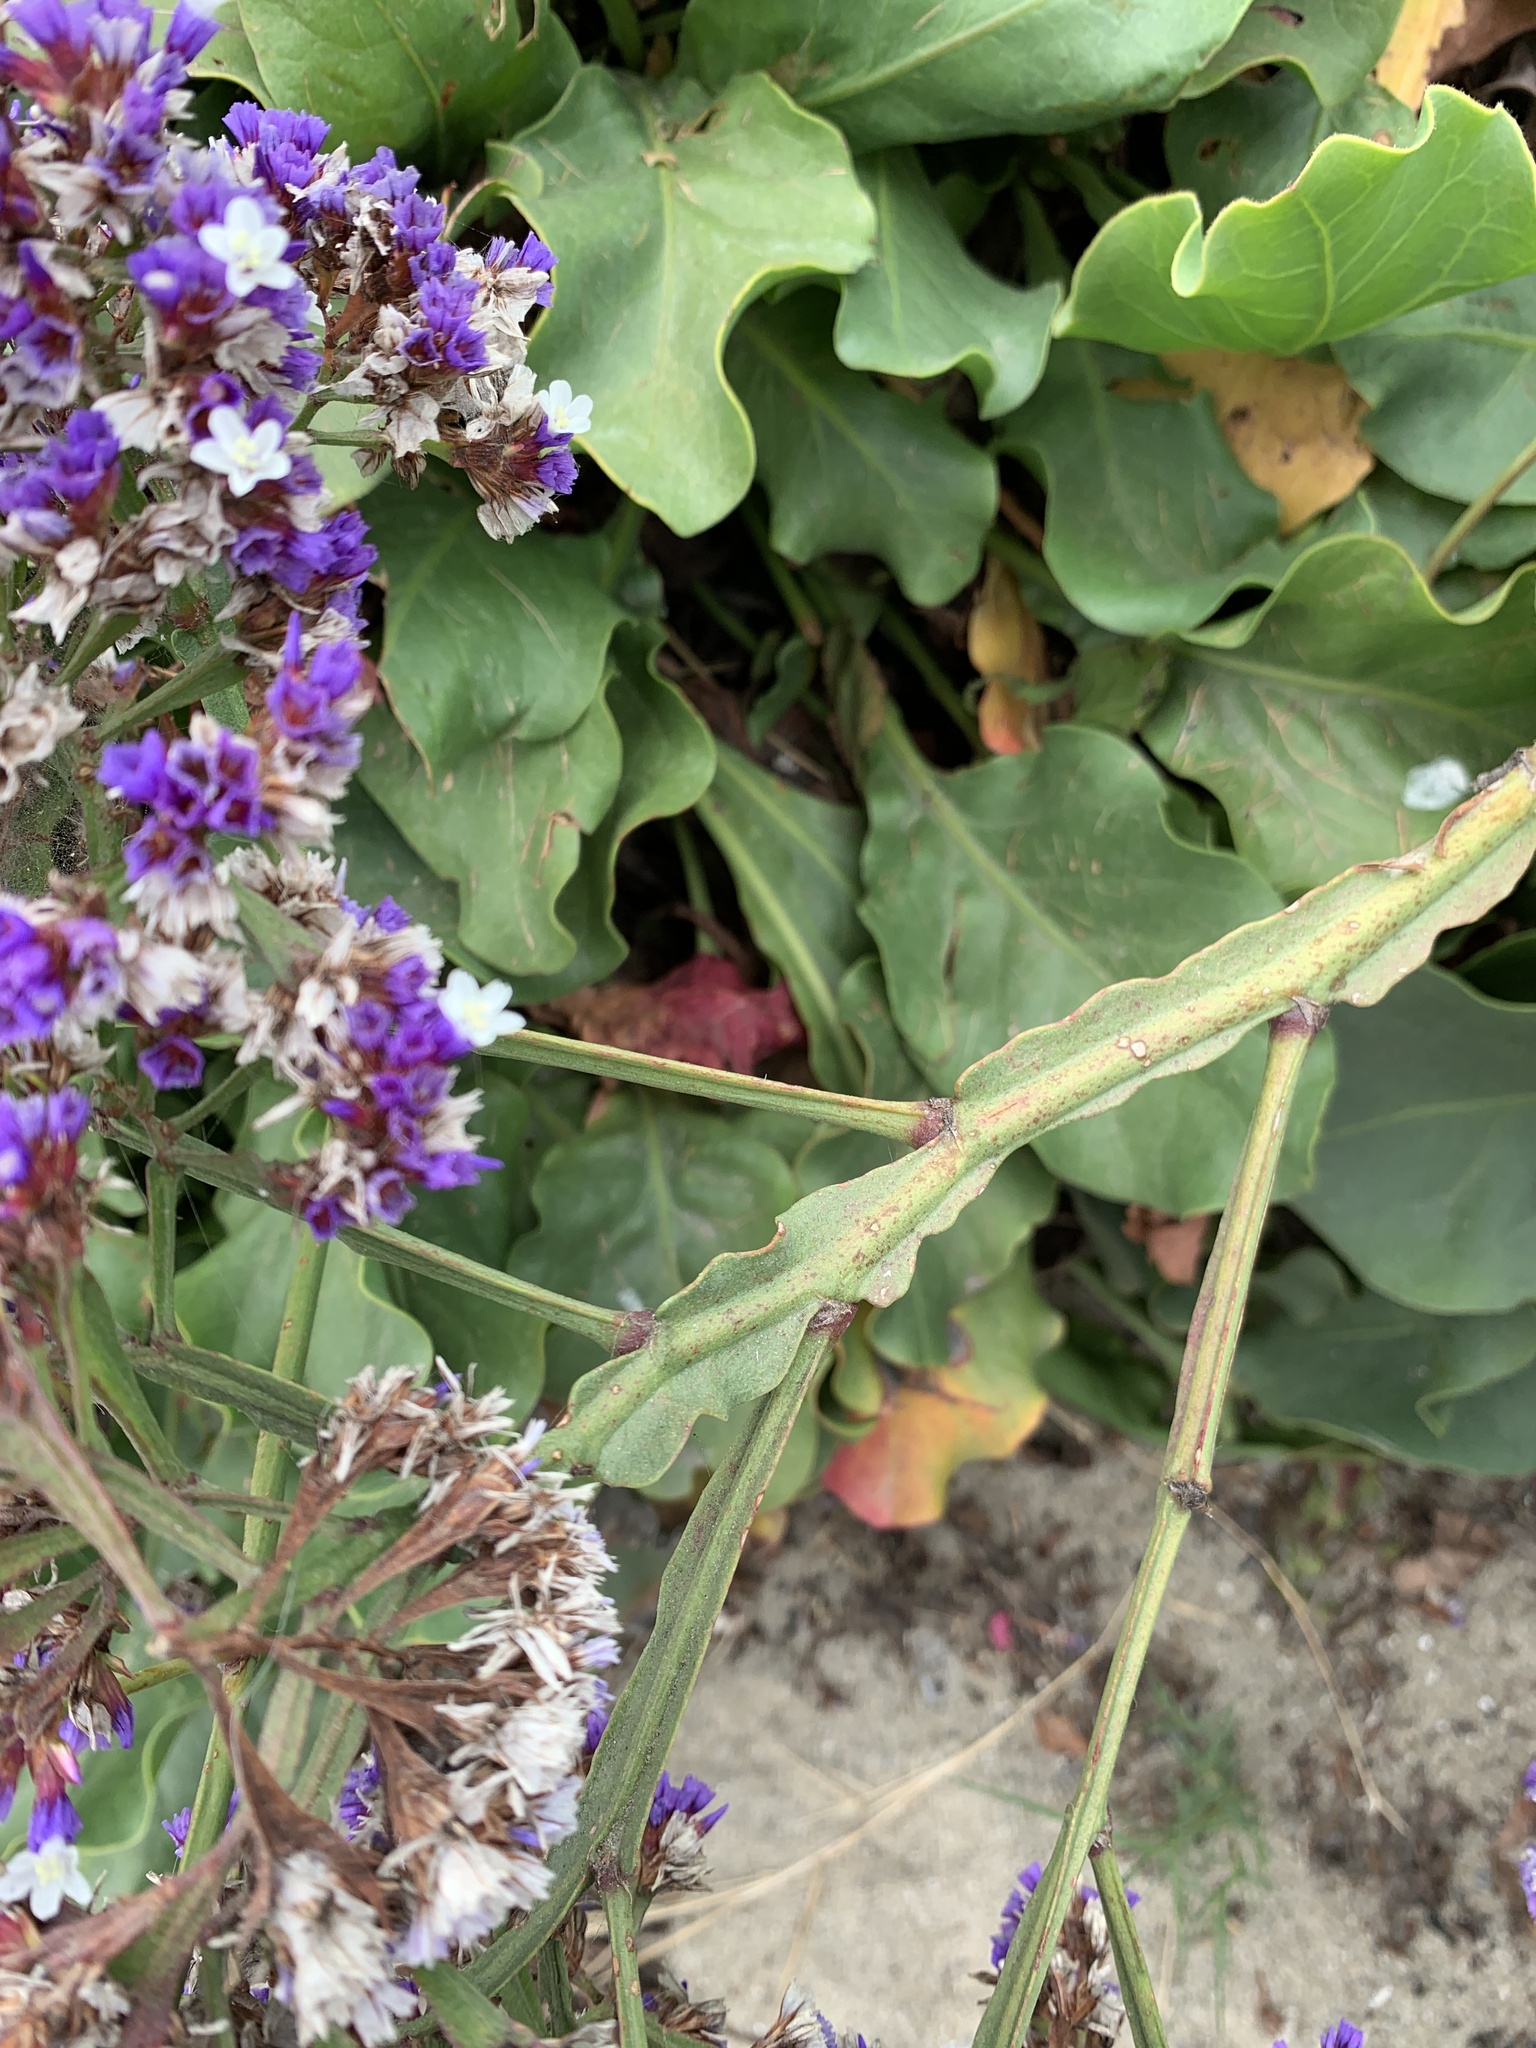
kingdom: Plantae
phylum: Tracheophyta
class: Magnoliopsida
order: Caryophyllales
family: Plumbaginaceae
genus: Limonium
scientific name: Limonium perezii
